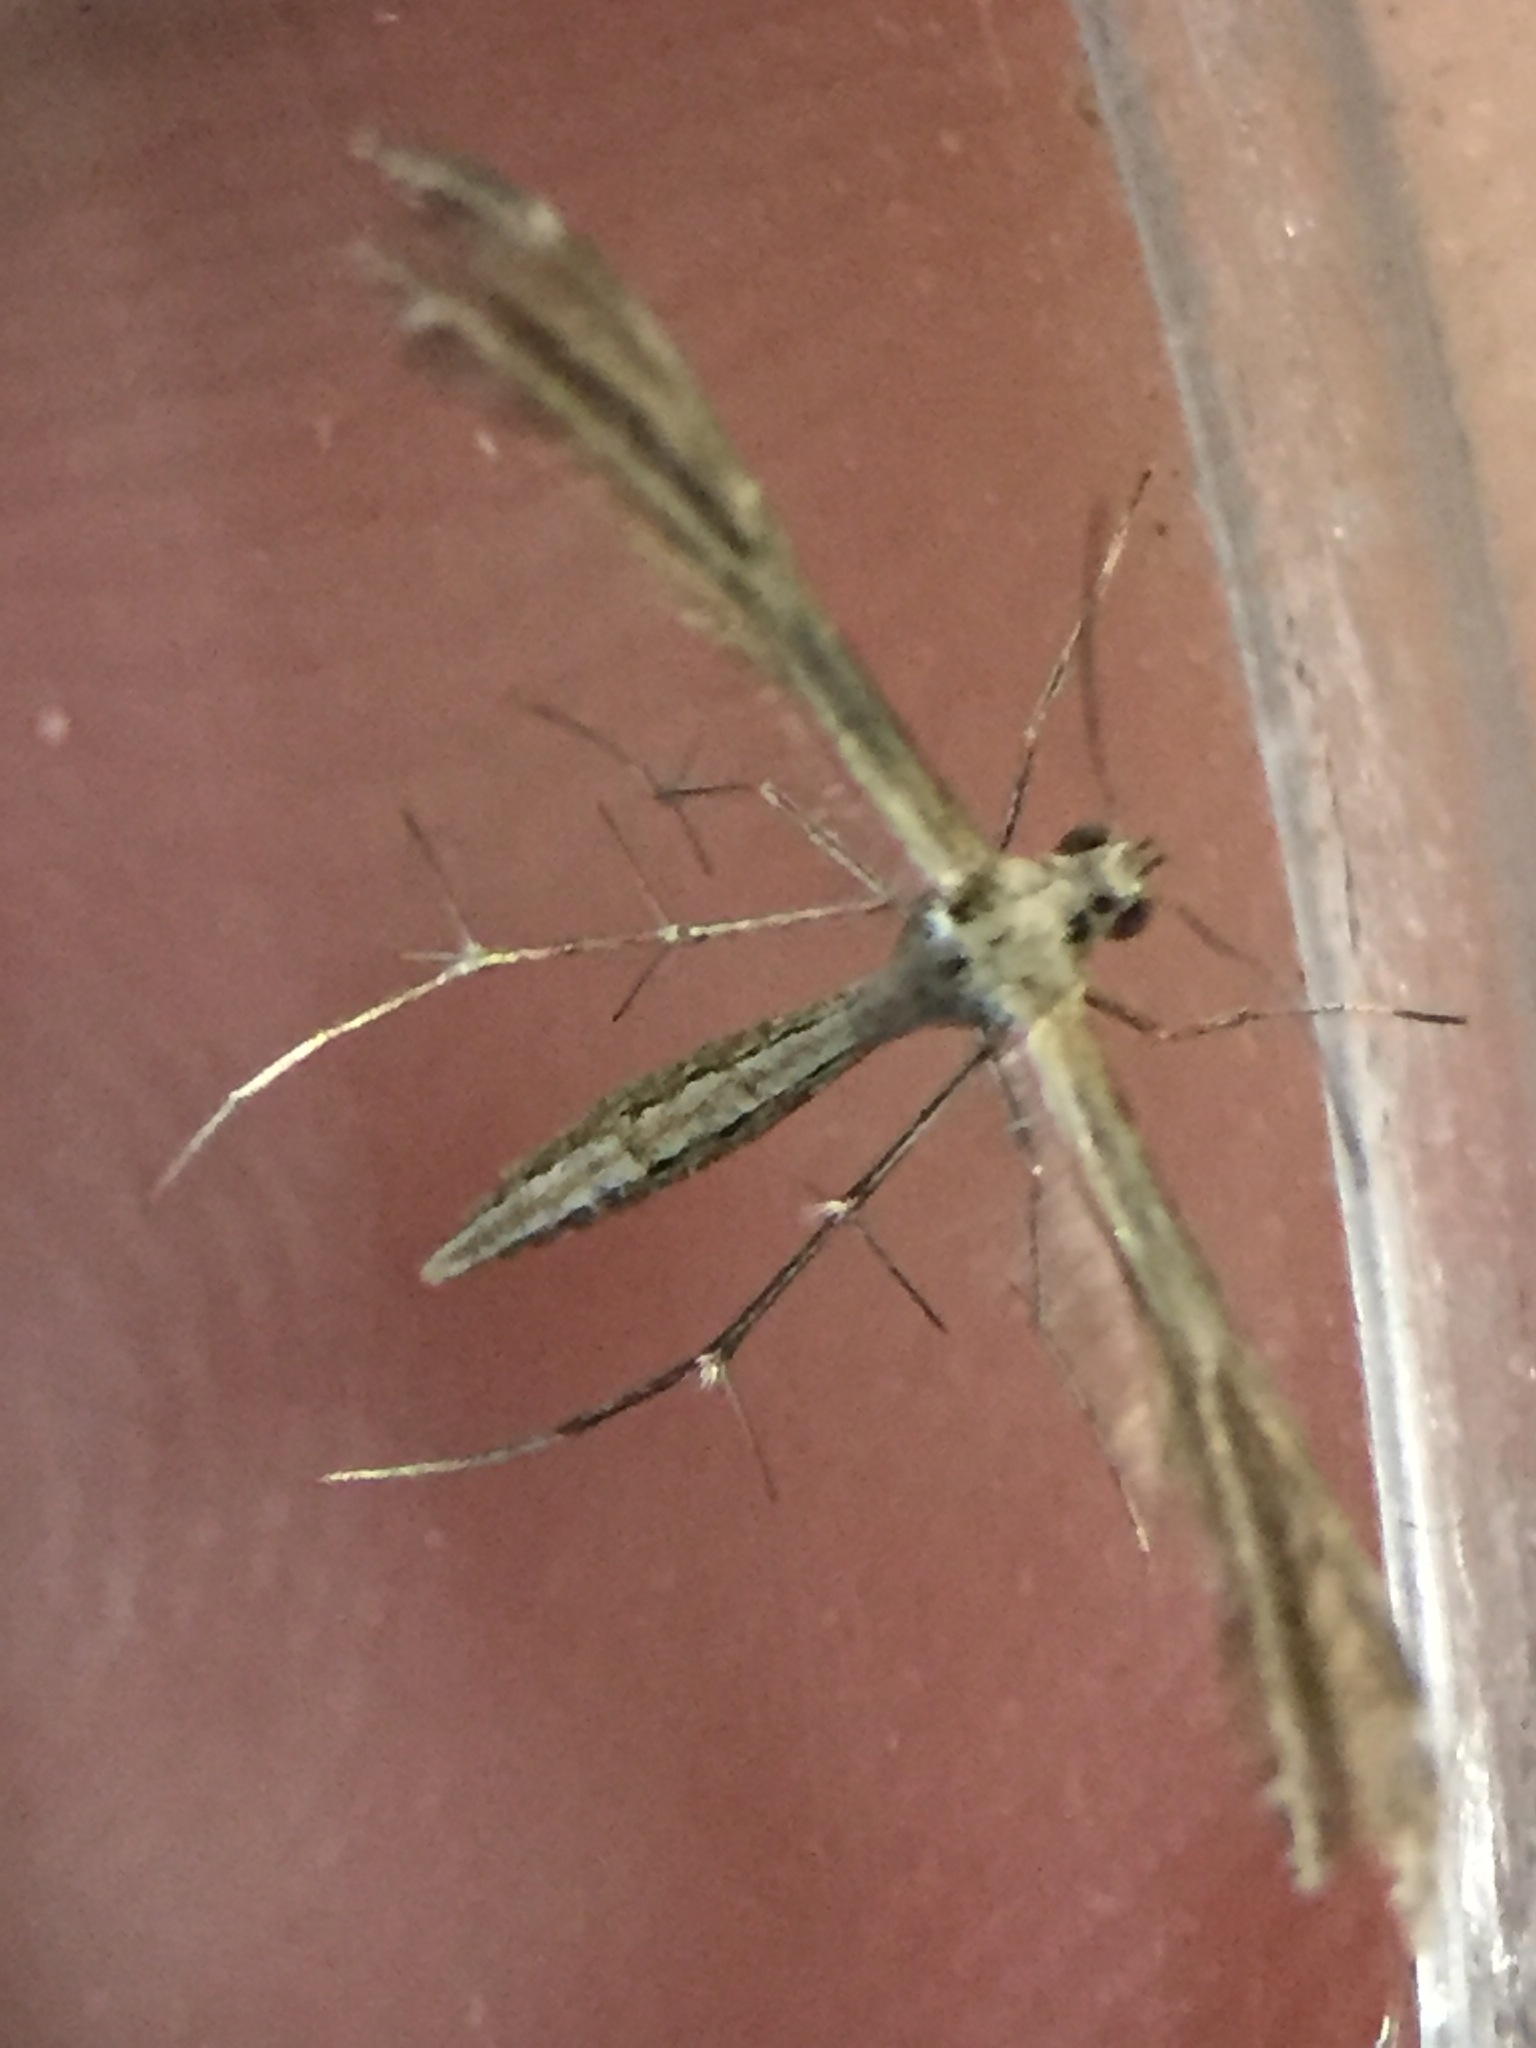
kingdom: Animalia
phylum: Arthropoda
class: Insecta
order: Lepidoptera
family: Pterophoridae
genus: Stangeia
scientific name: Stangeia xerodes
